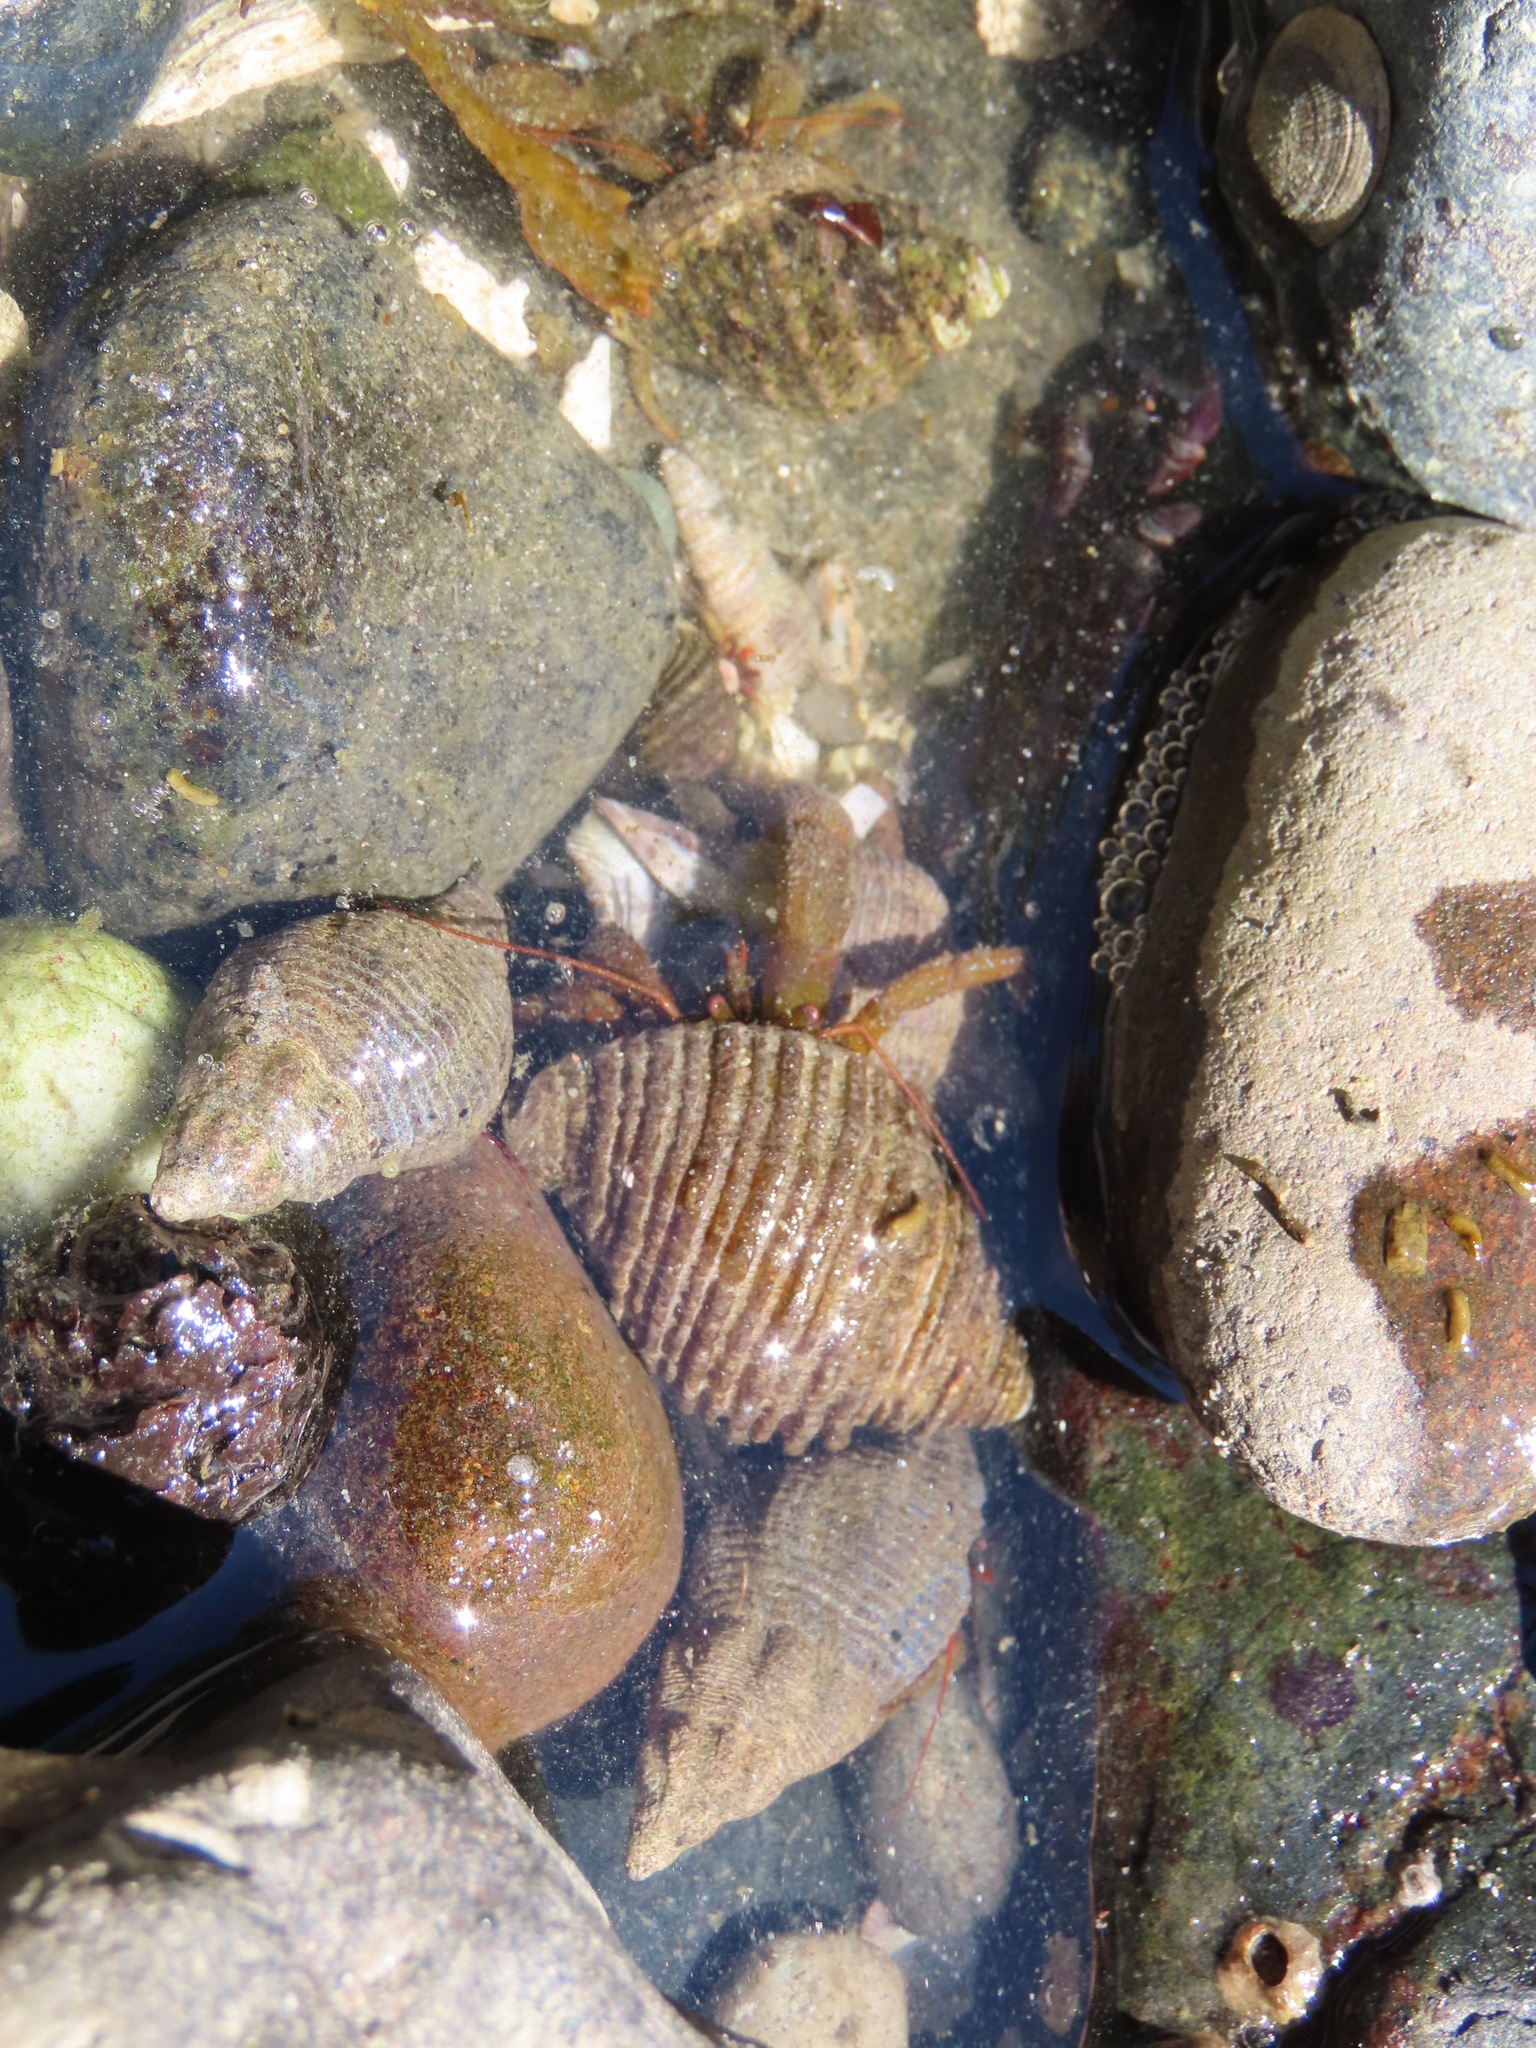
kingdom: Animalia
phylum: Arthropoda
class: Malacostraca
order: Decapoda
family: Paguridae
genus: Pagurus
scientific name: Pagurus granosimanus
